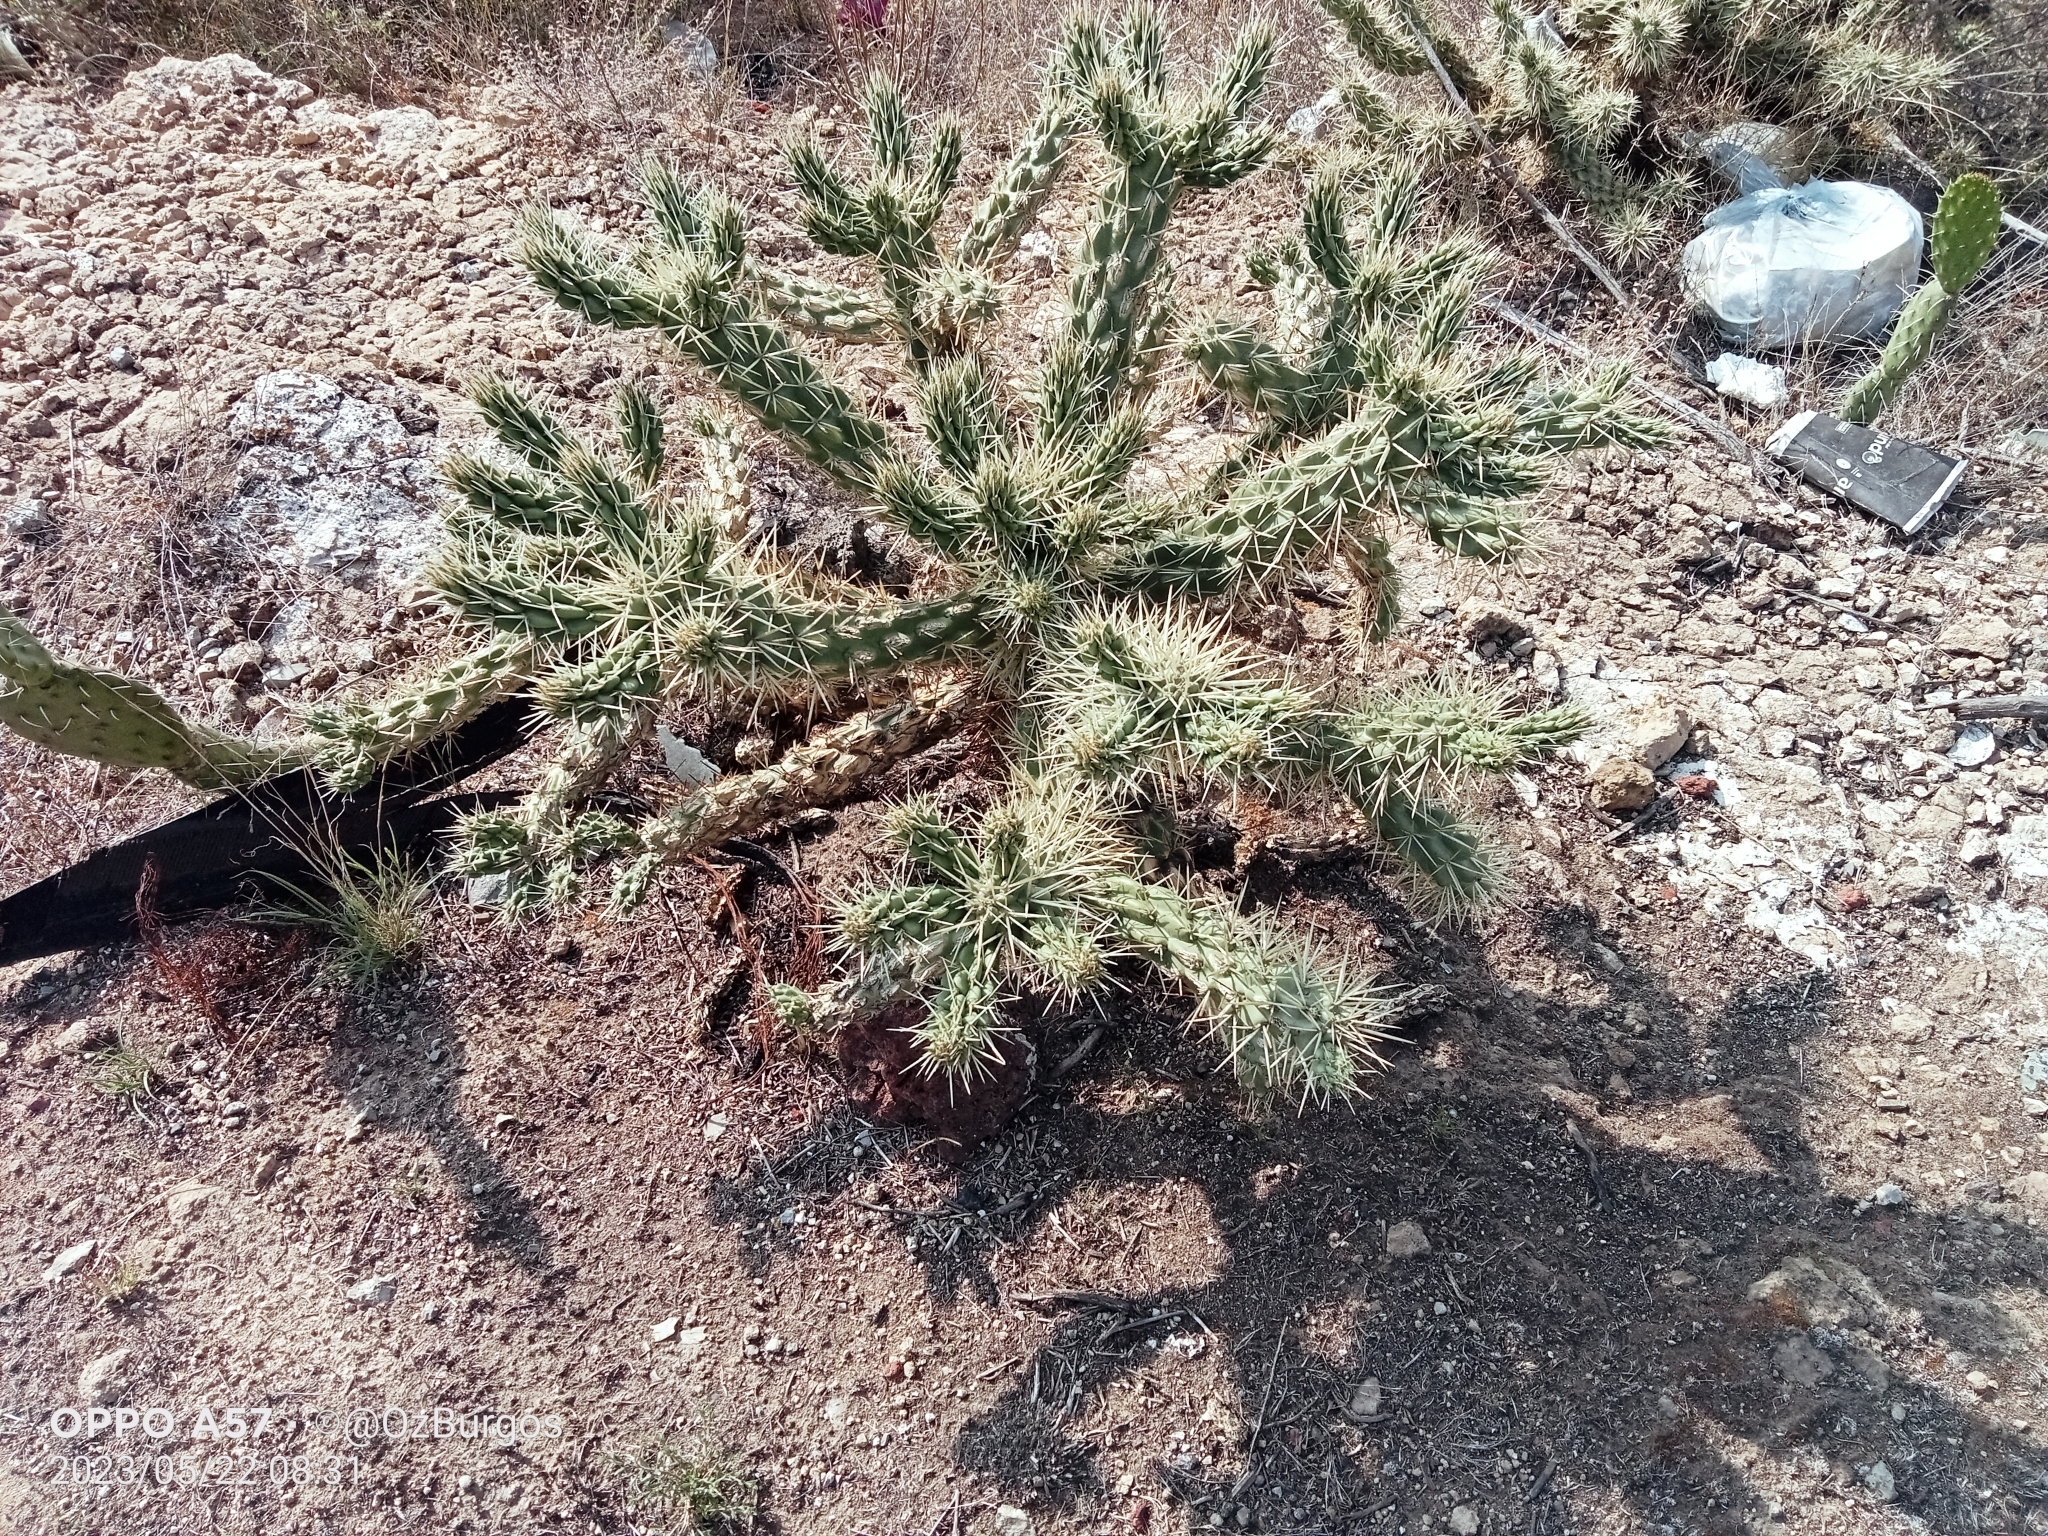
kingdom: Plantae
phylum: Tracheophyta
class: Magnoliopsida
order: Caryophyllales
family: Cactaceae
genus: Cylindropuntia
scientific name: Cylindropuntia tunicata
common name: Sheathed cholla
